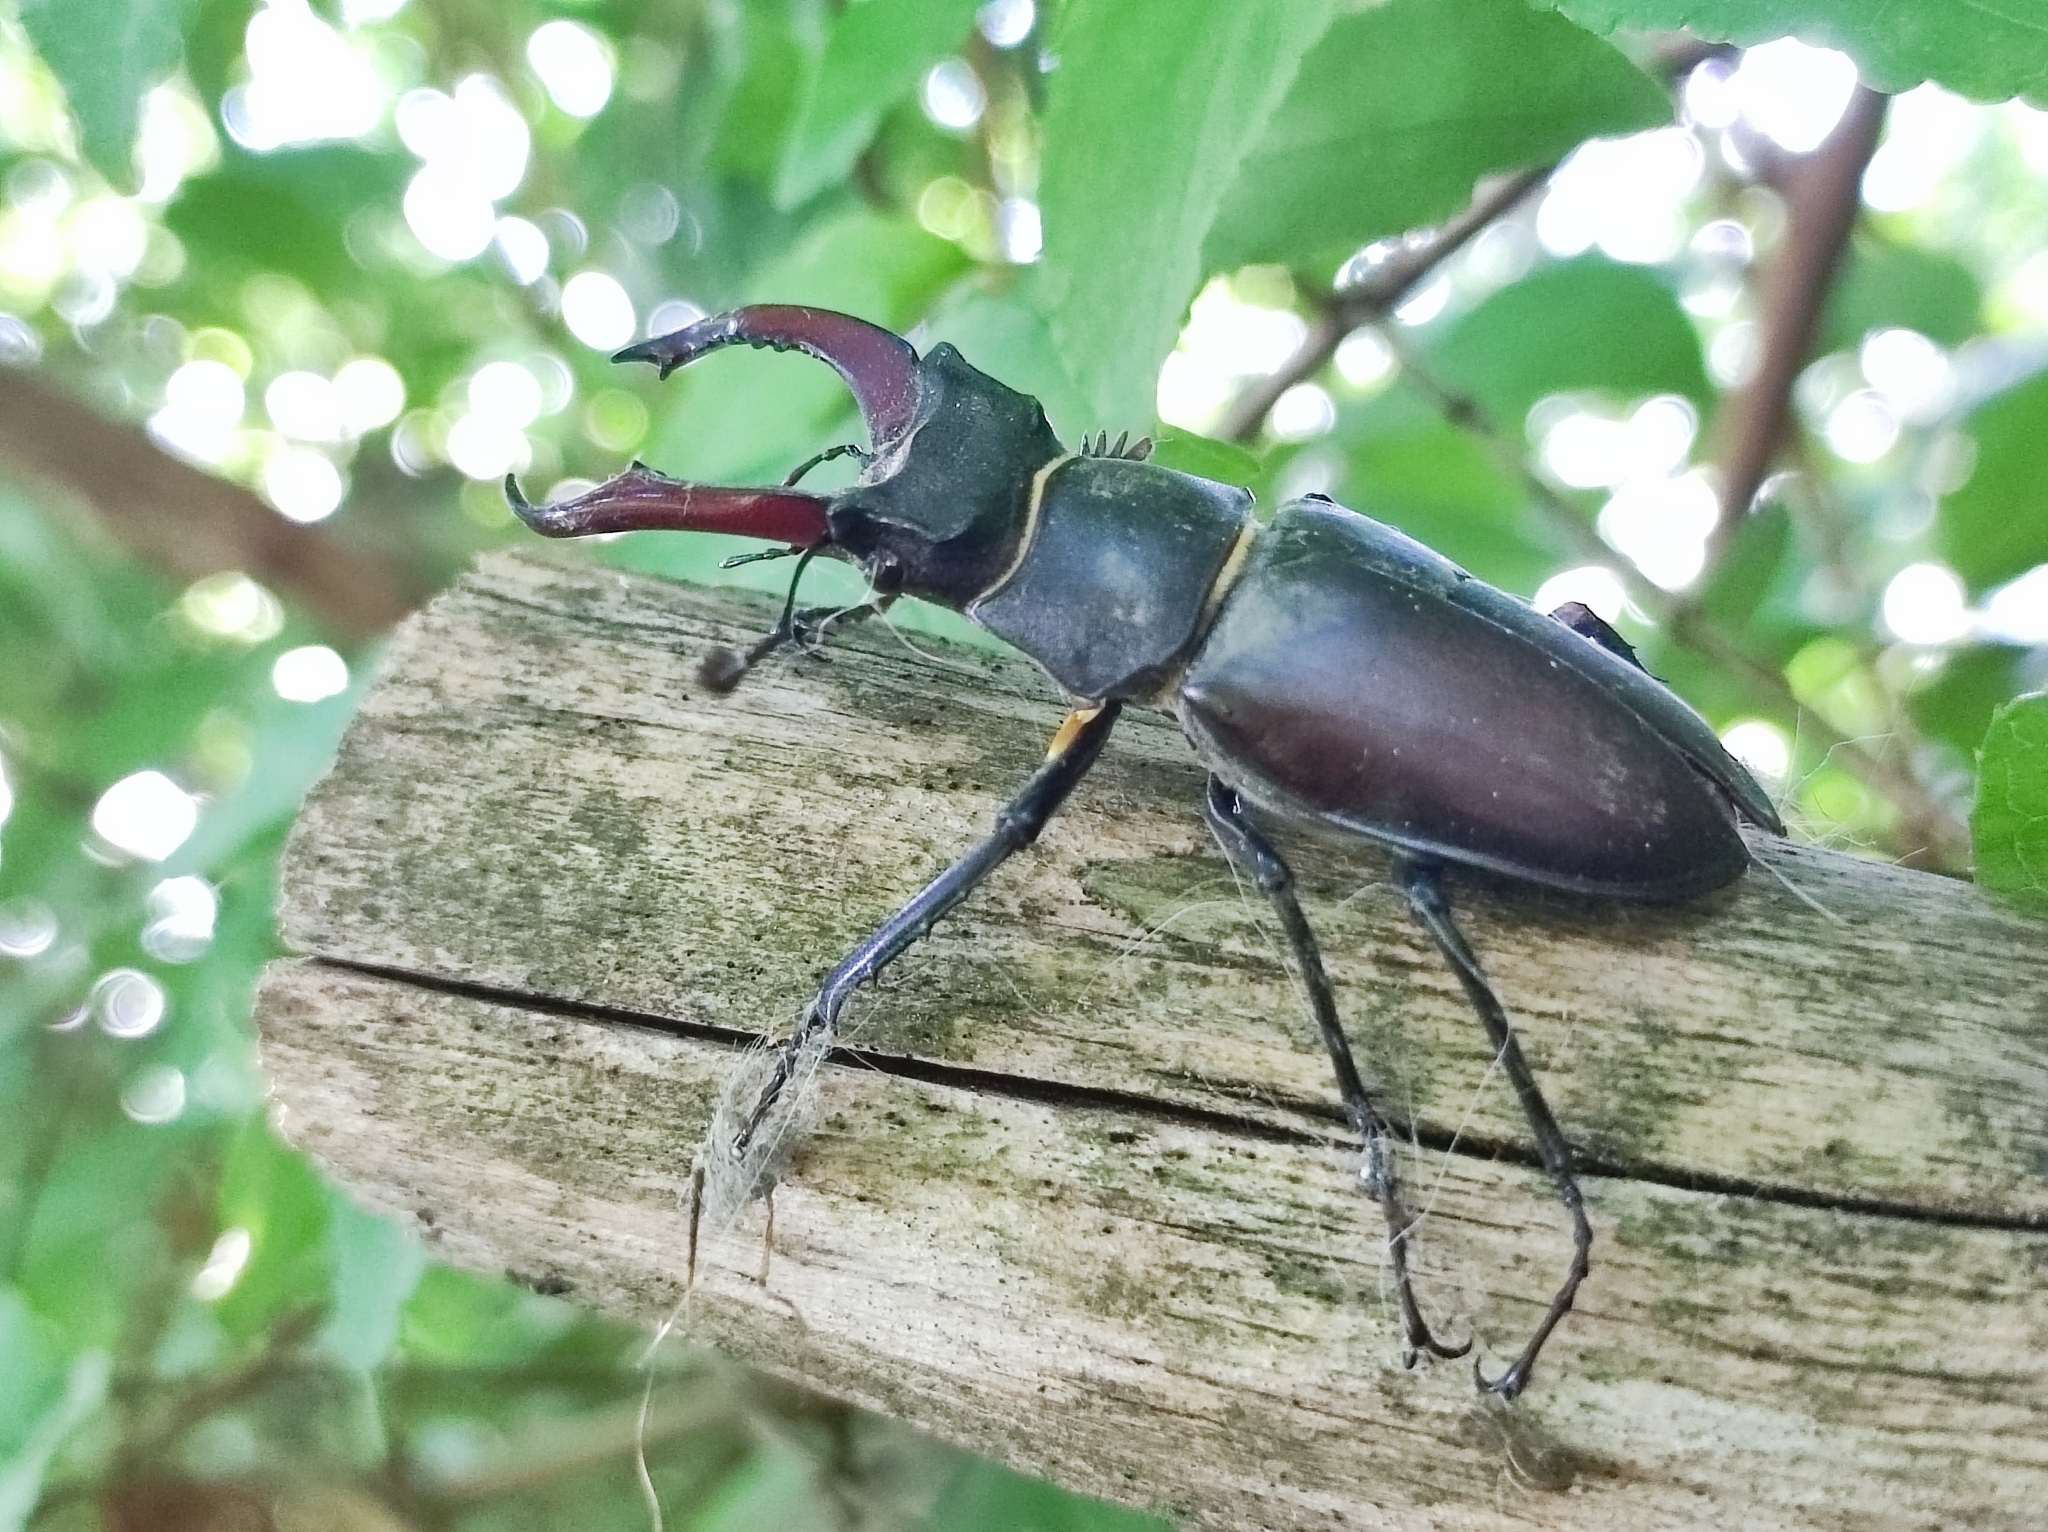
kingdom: Animalia
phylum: Arthropoda
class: Insecta
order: Coleoptera
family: Lucanidae
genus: Lucanus
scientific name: Lucanus cervus
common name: Stag beetle
